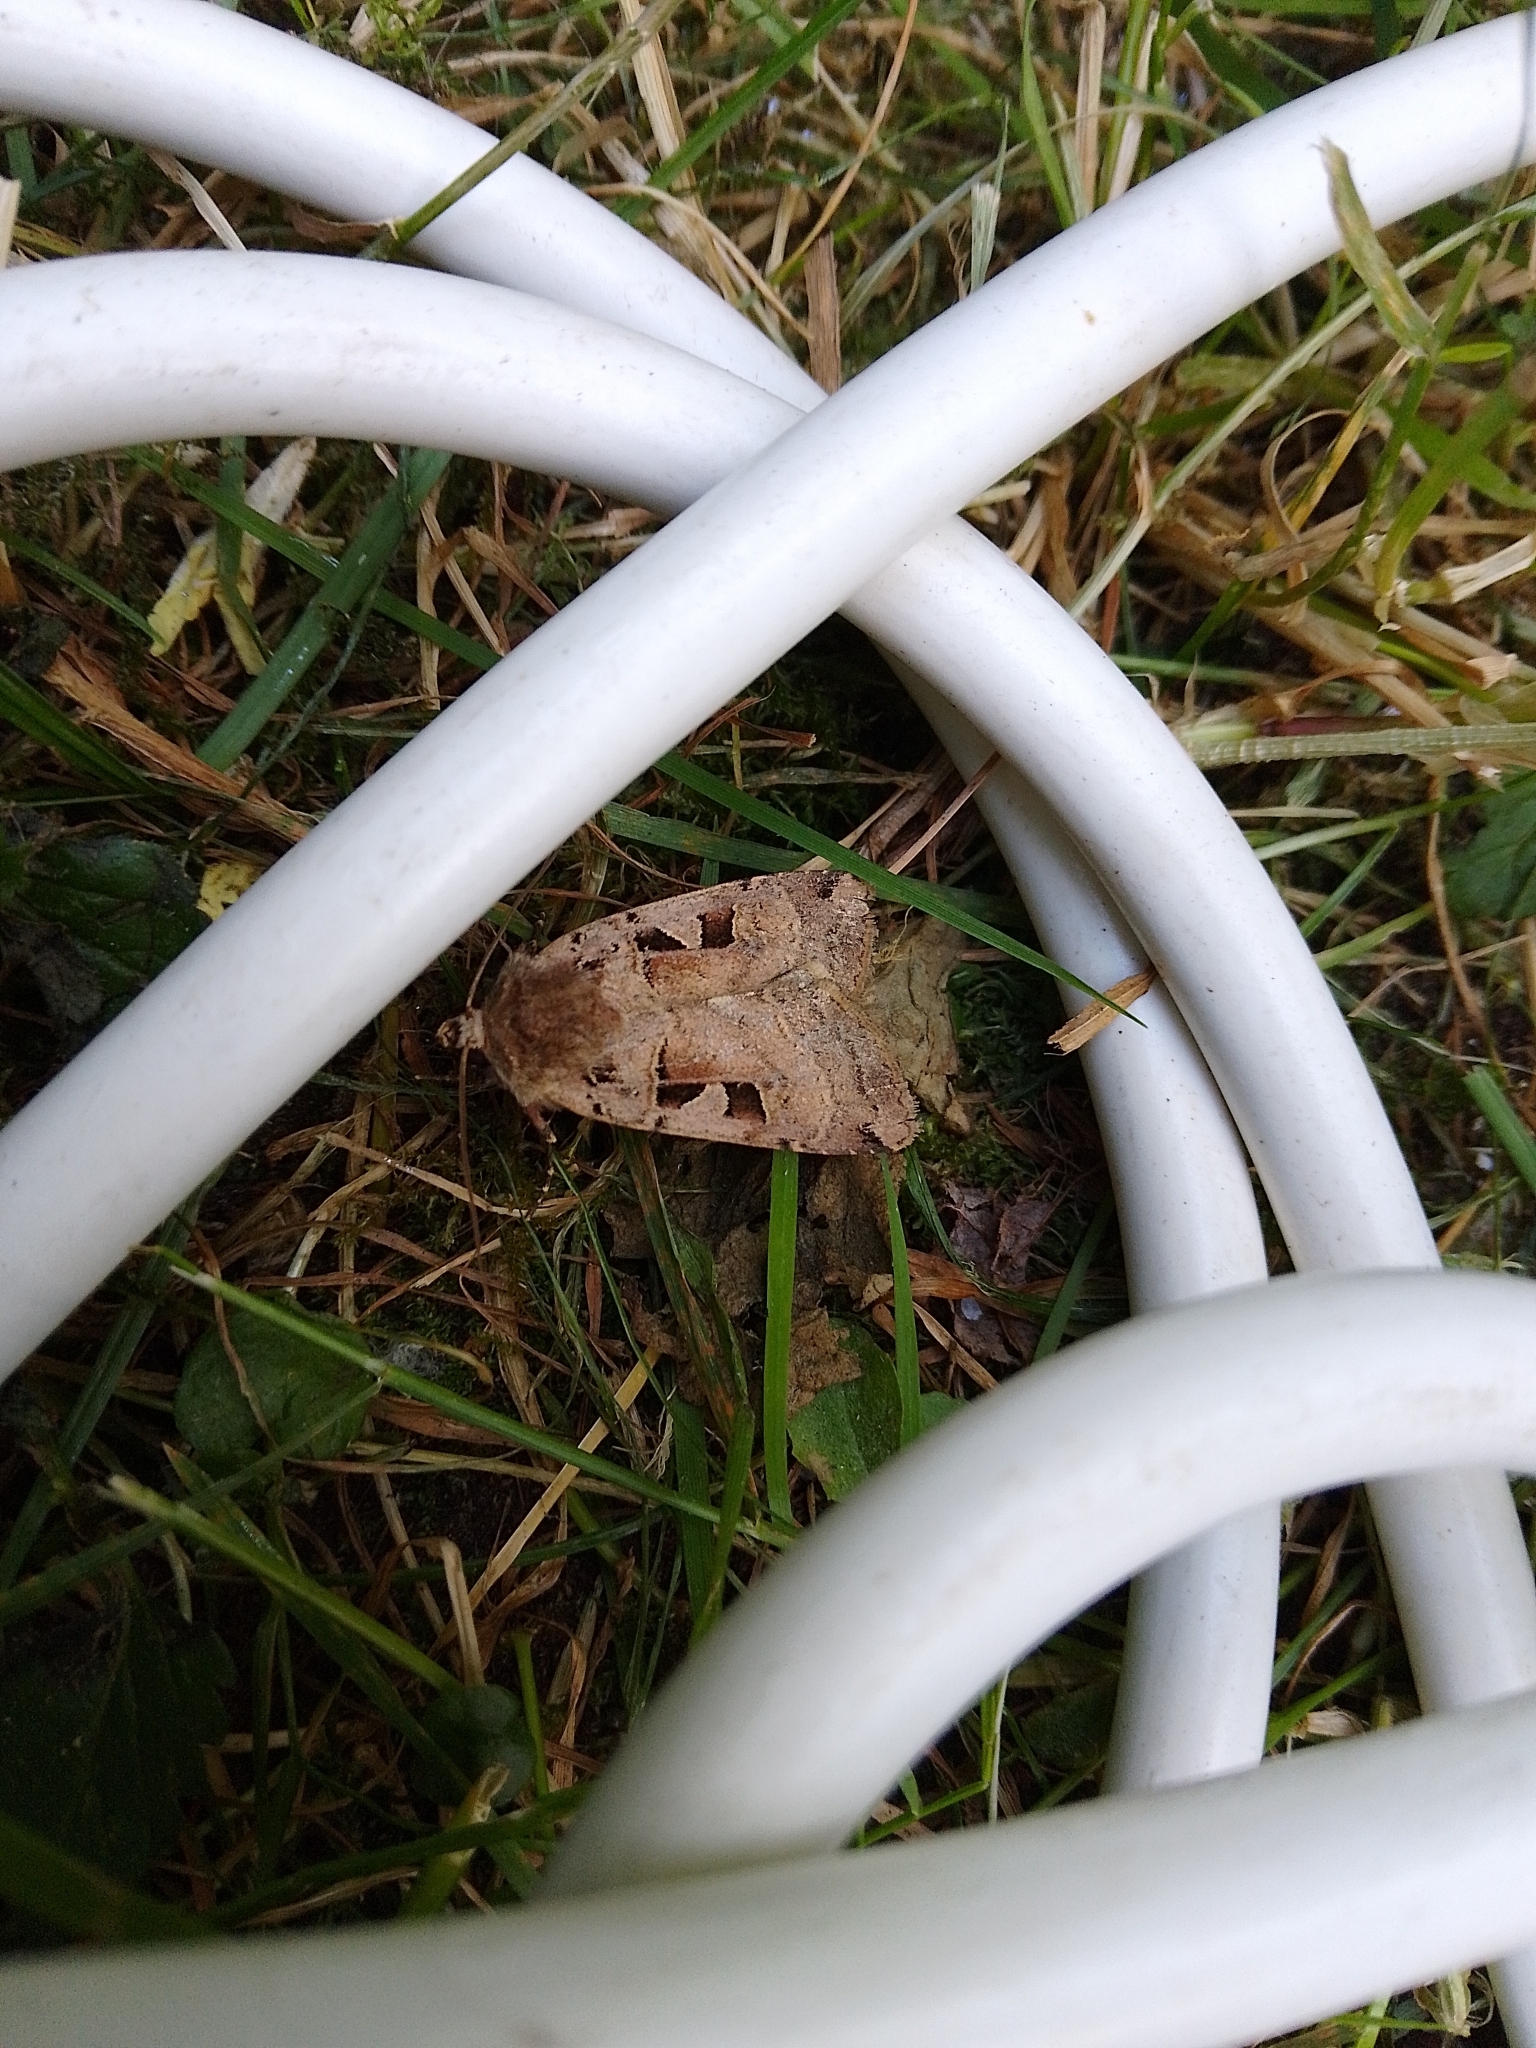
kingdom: Animalia
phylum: Arthropoda
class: Insecta
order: Lepidoptera
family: Noctuidae
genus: Xestia
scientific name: Xestia triangulum
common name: Double square-spot
